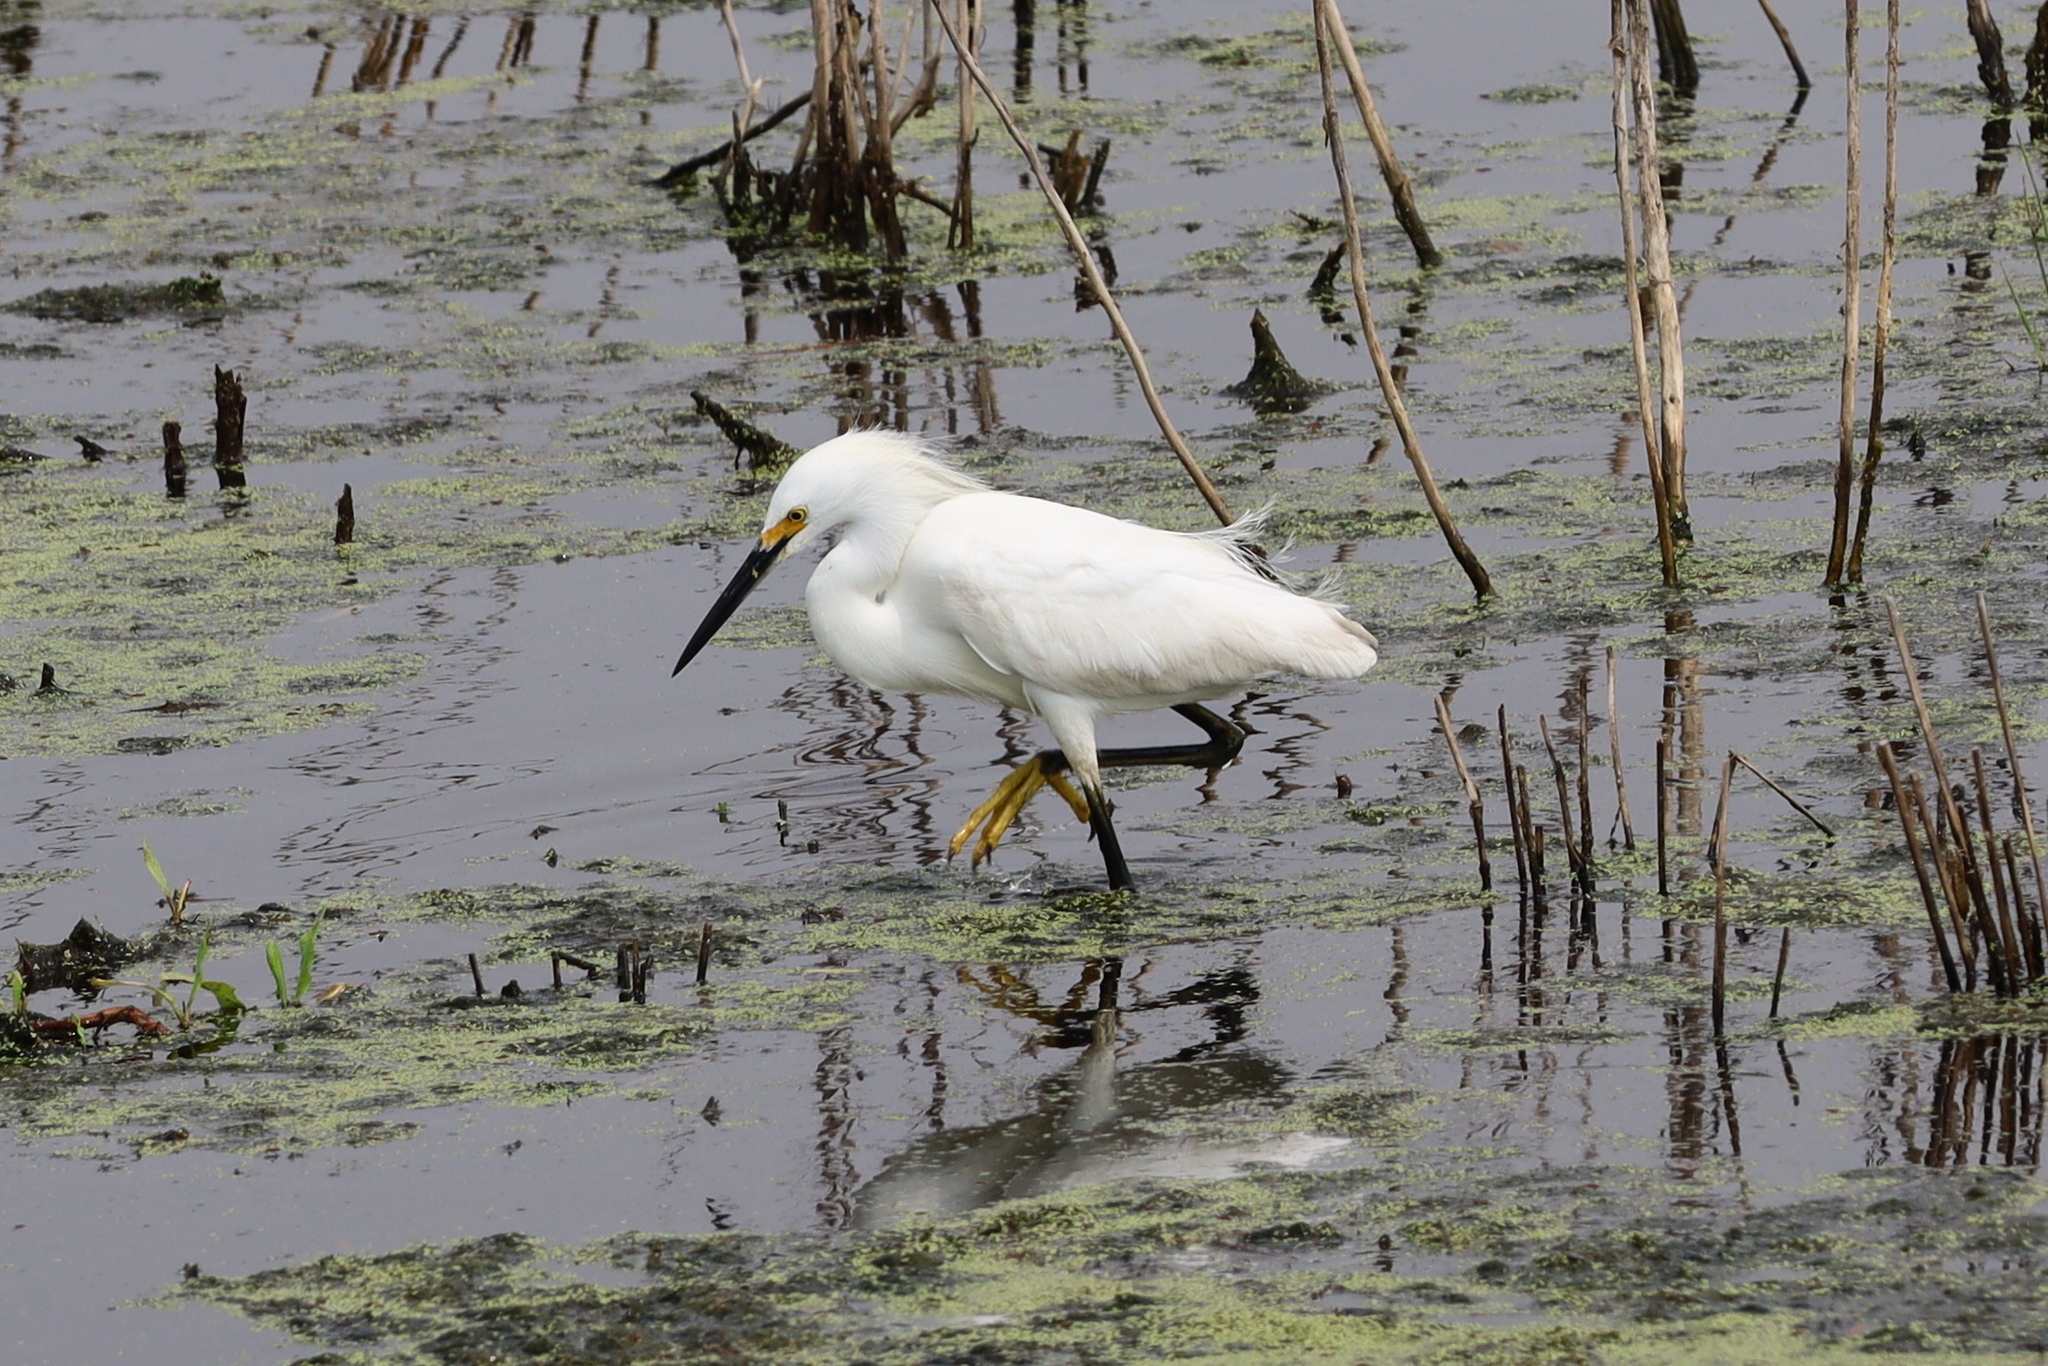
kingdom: Animalia
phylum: Chordata
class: Aves
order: Pelecaniformes
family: Ardeidae
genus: Egretta
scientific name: Egretta thula
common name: Snowy egret
